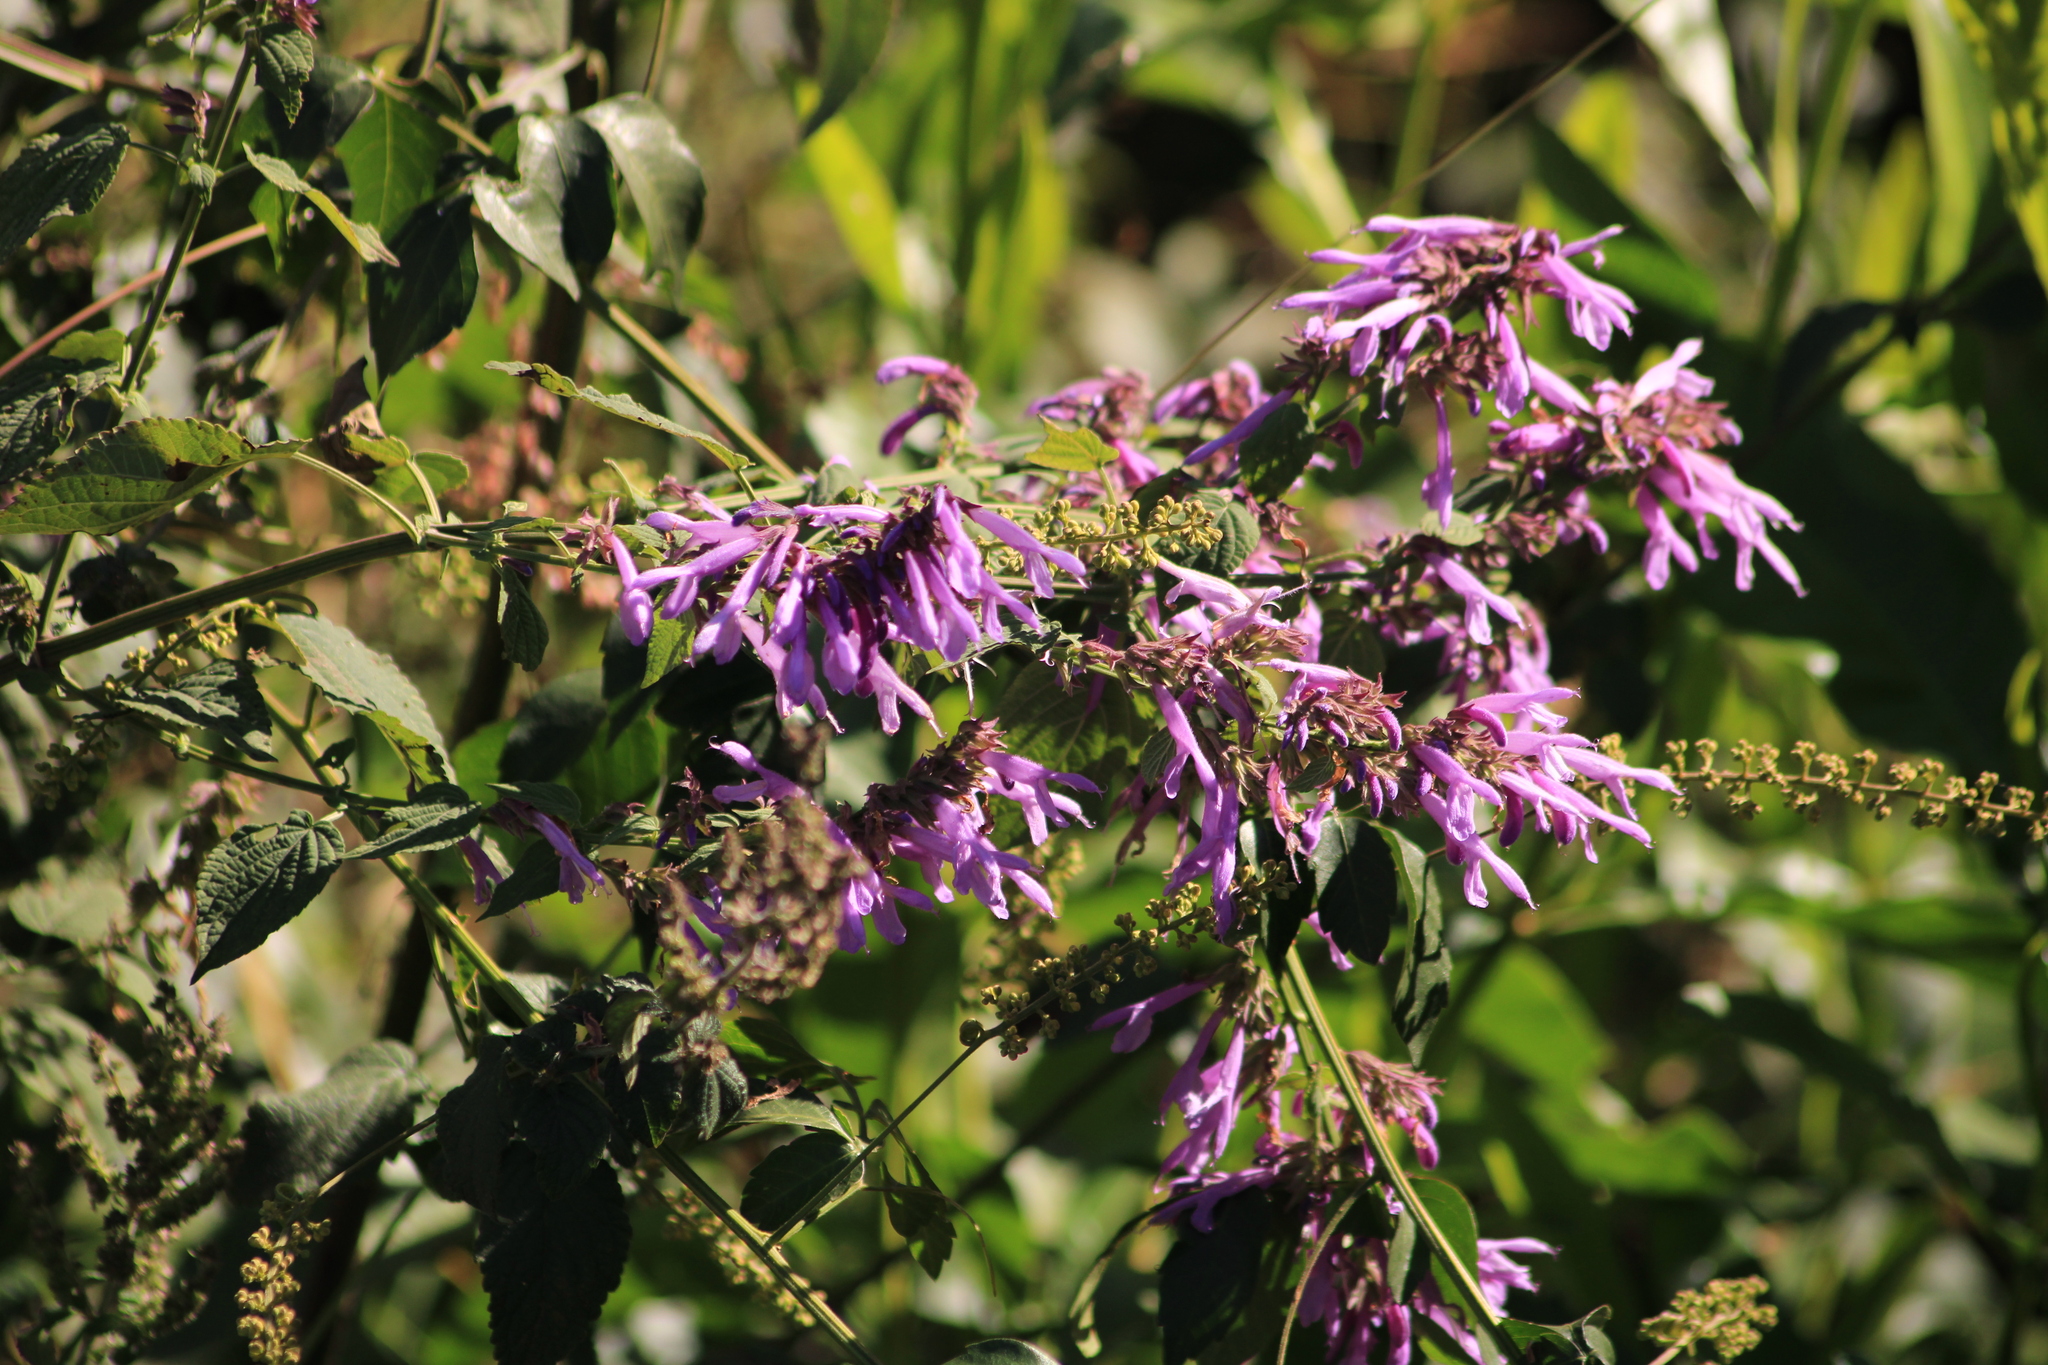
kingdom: Plantae
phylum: Tracheophyta
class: Magnoliopsida
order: Lamiales
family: Lamiaceae
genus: Salvia
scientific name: Salvia purpurea
